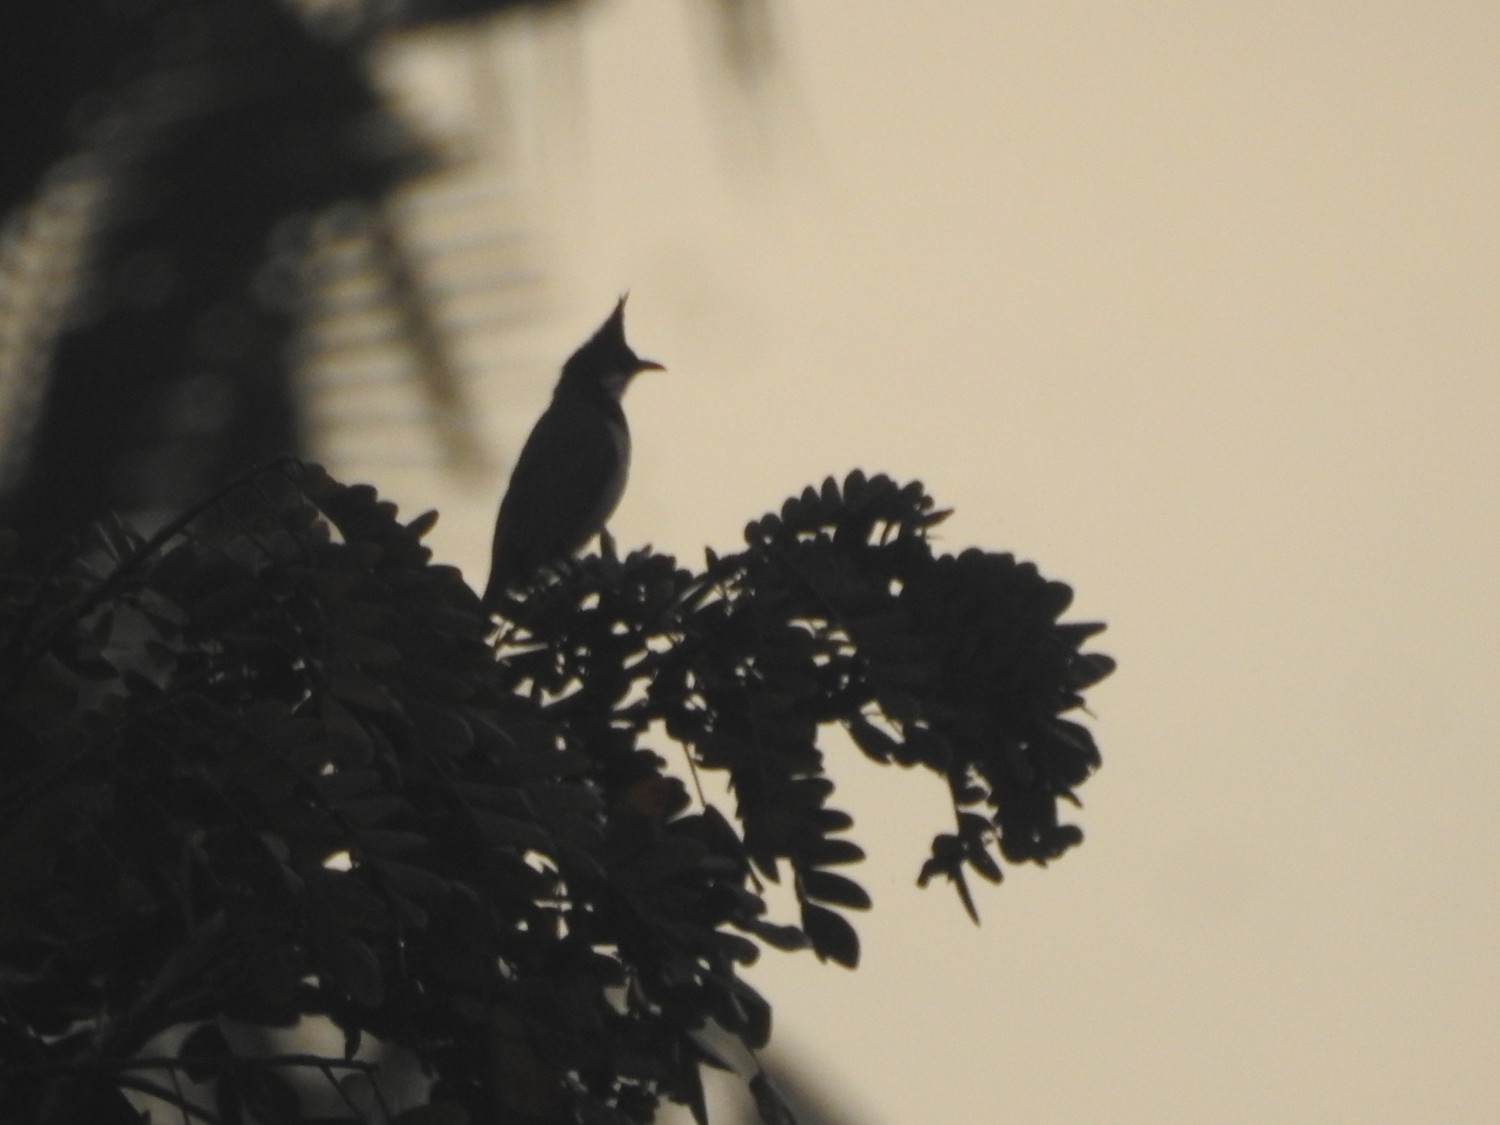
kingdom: Animalia
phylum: Chordata
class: Aves
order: Passeriformes
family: Pycnonotidae
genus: Pycnonotus
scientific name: Pycnonotus jocosus
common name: Red-whiskered bulbul
